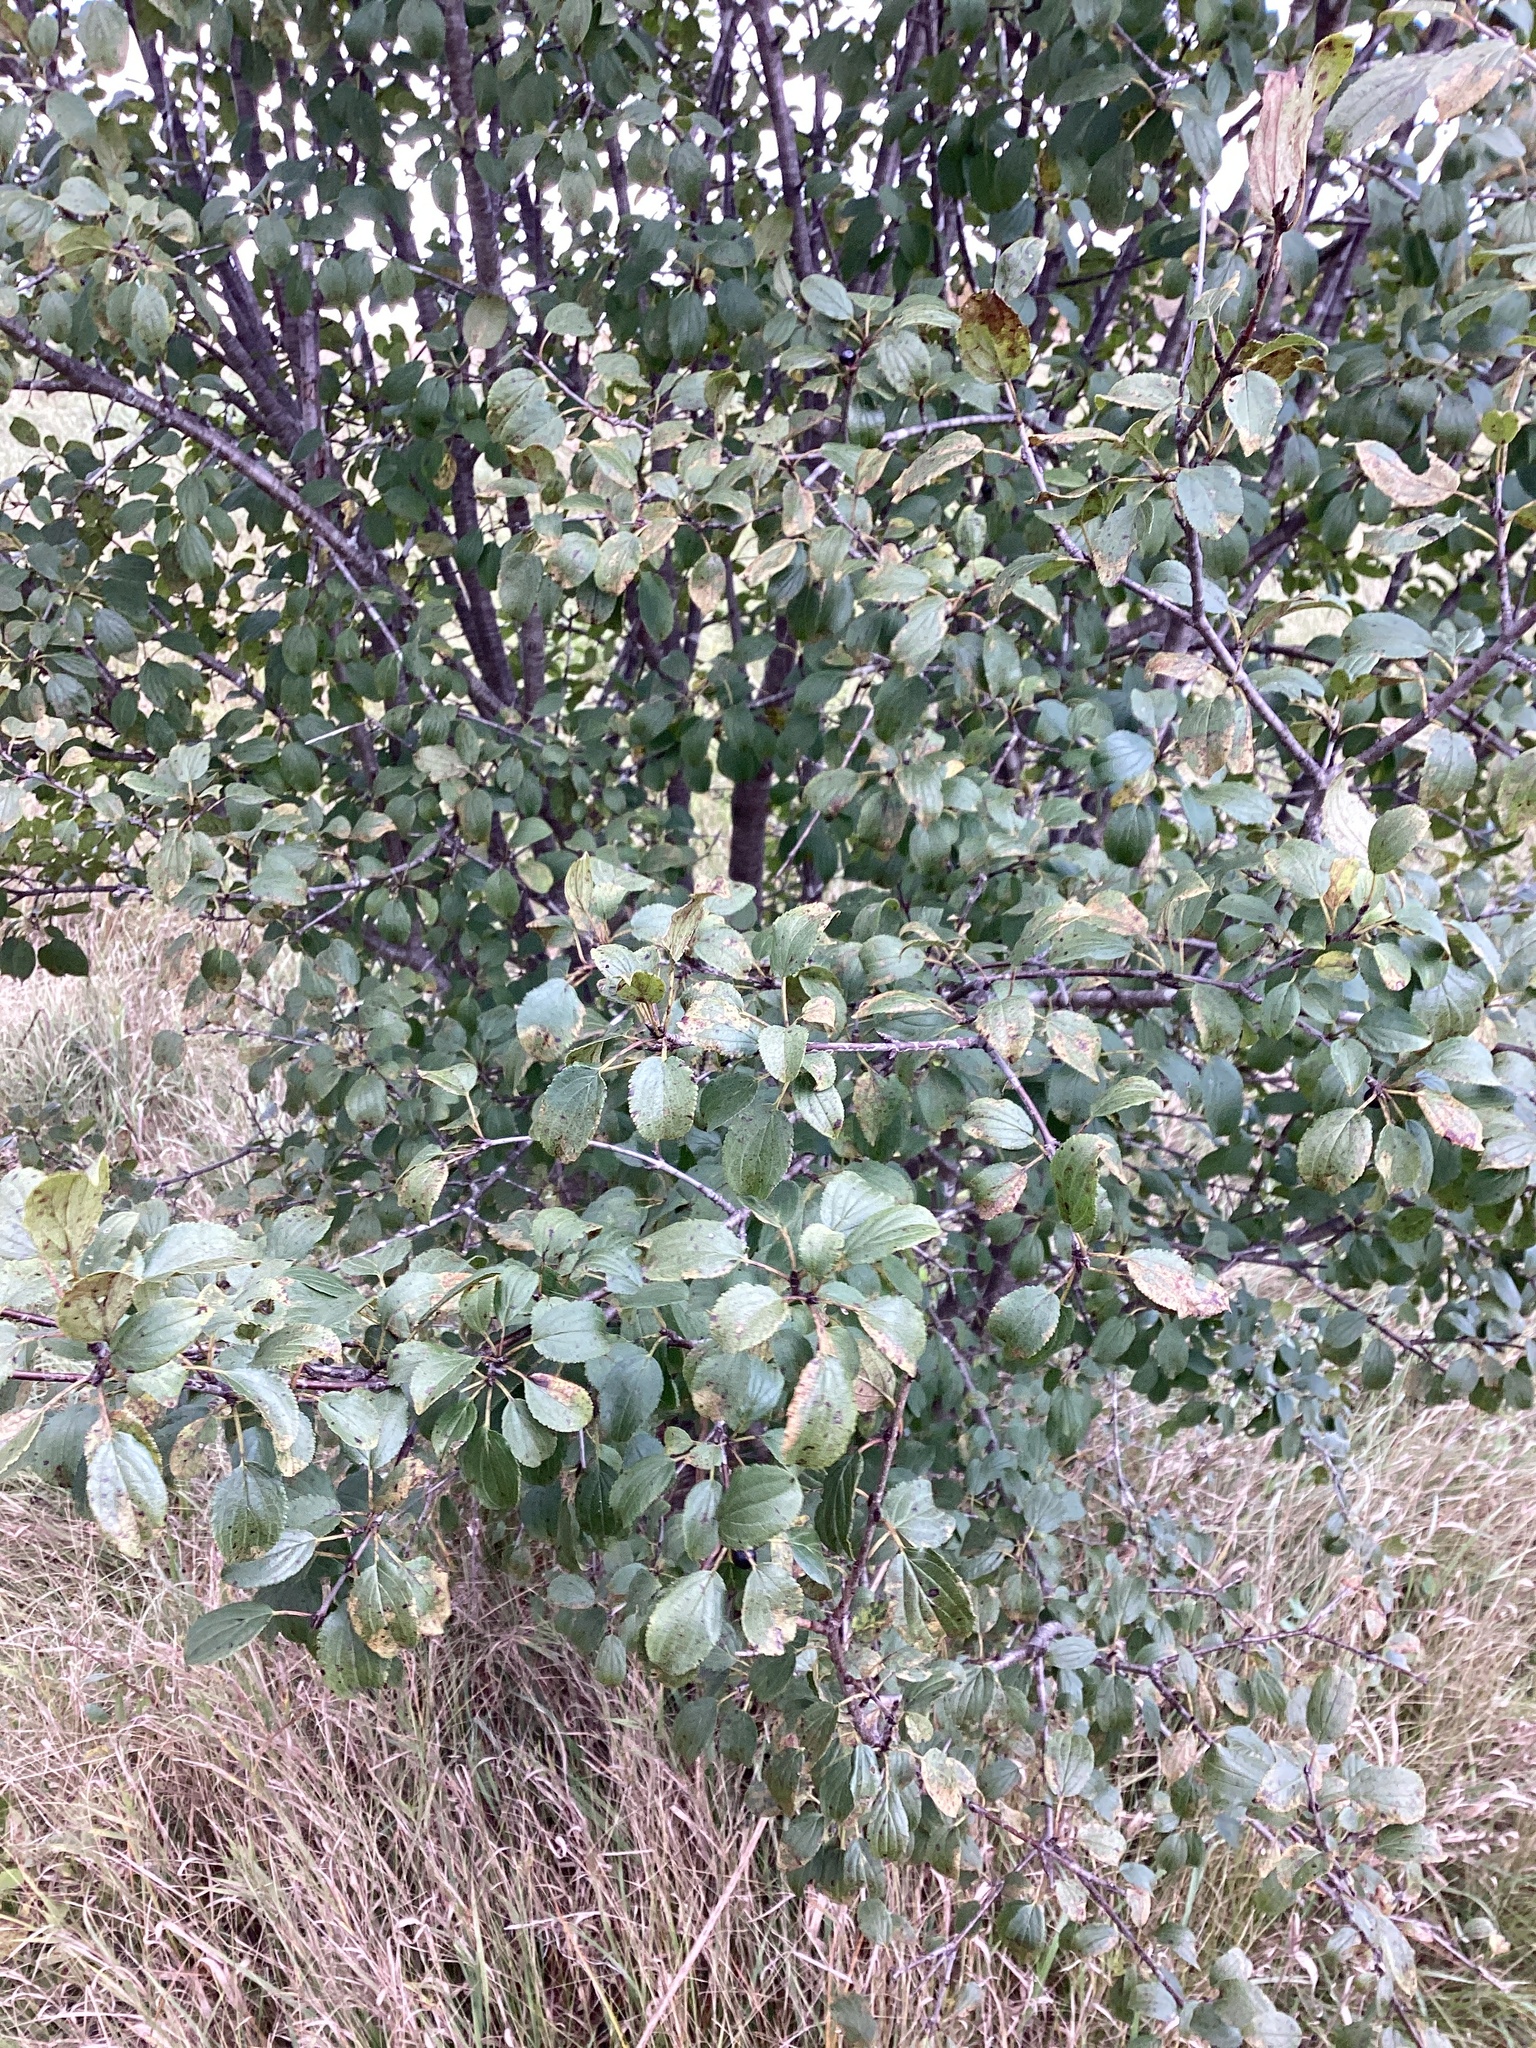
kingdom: Plantae
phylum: Tracheophyta
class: Magnoliopsida
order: Rosales
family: Rhamnaceae
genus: Rhamnus
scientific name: Rhamnus cathartica
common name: Common buckthorn
